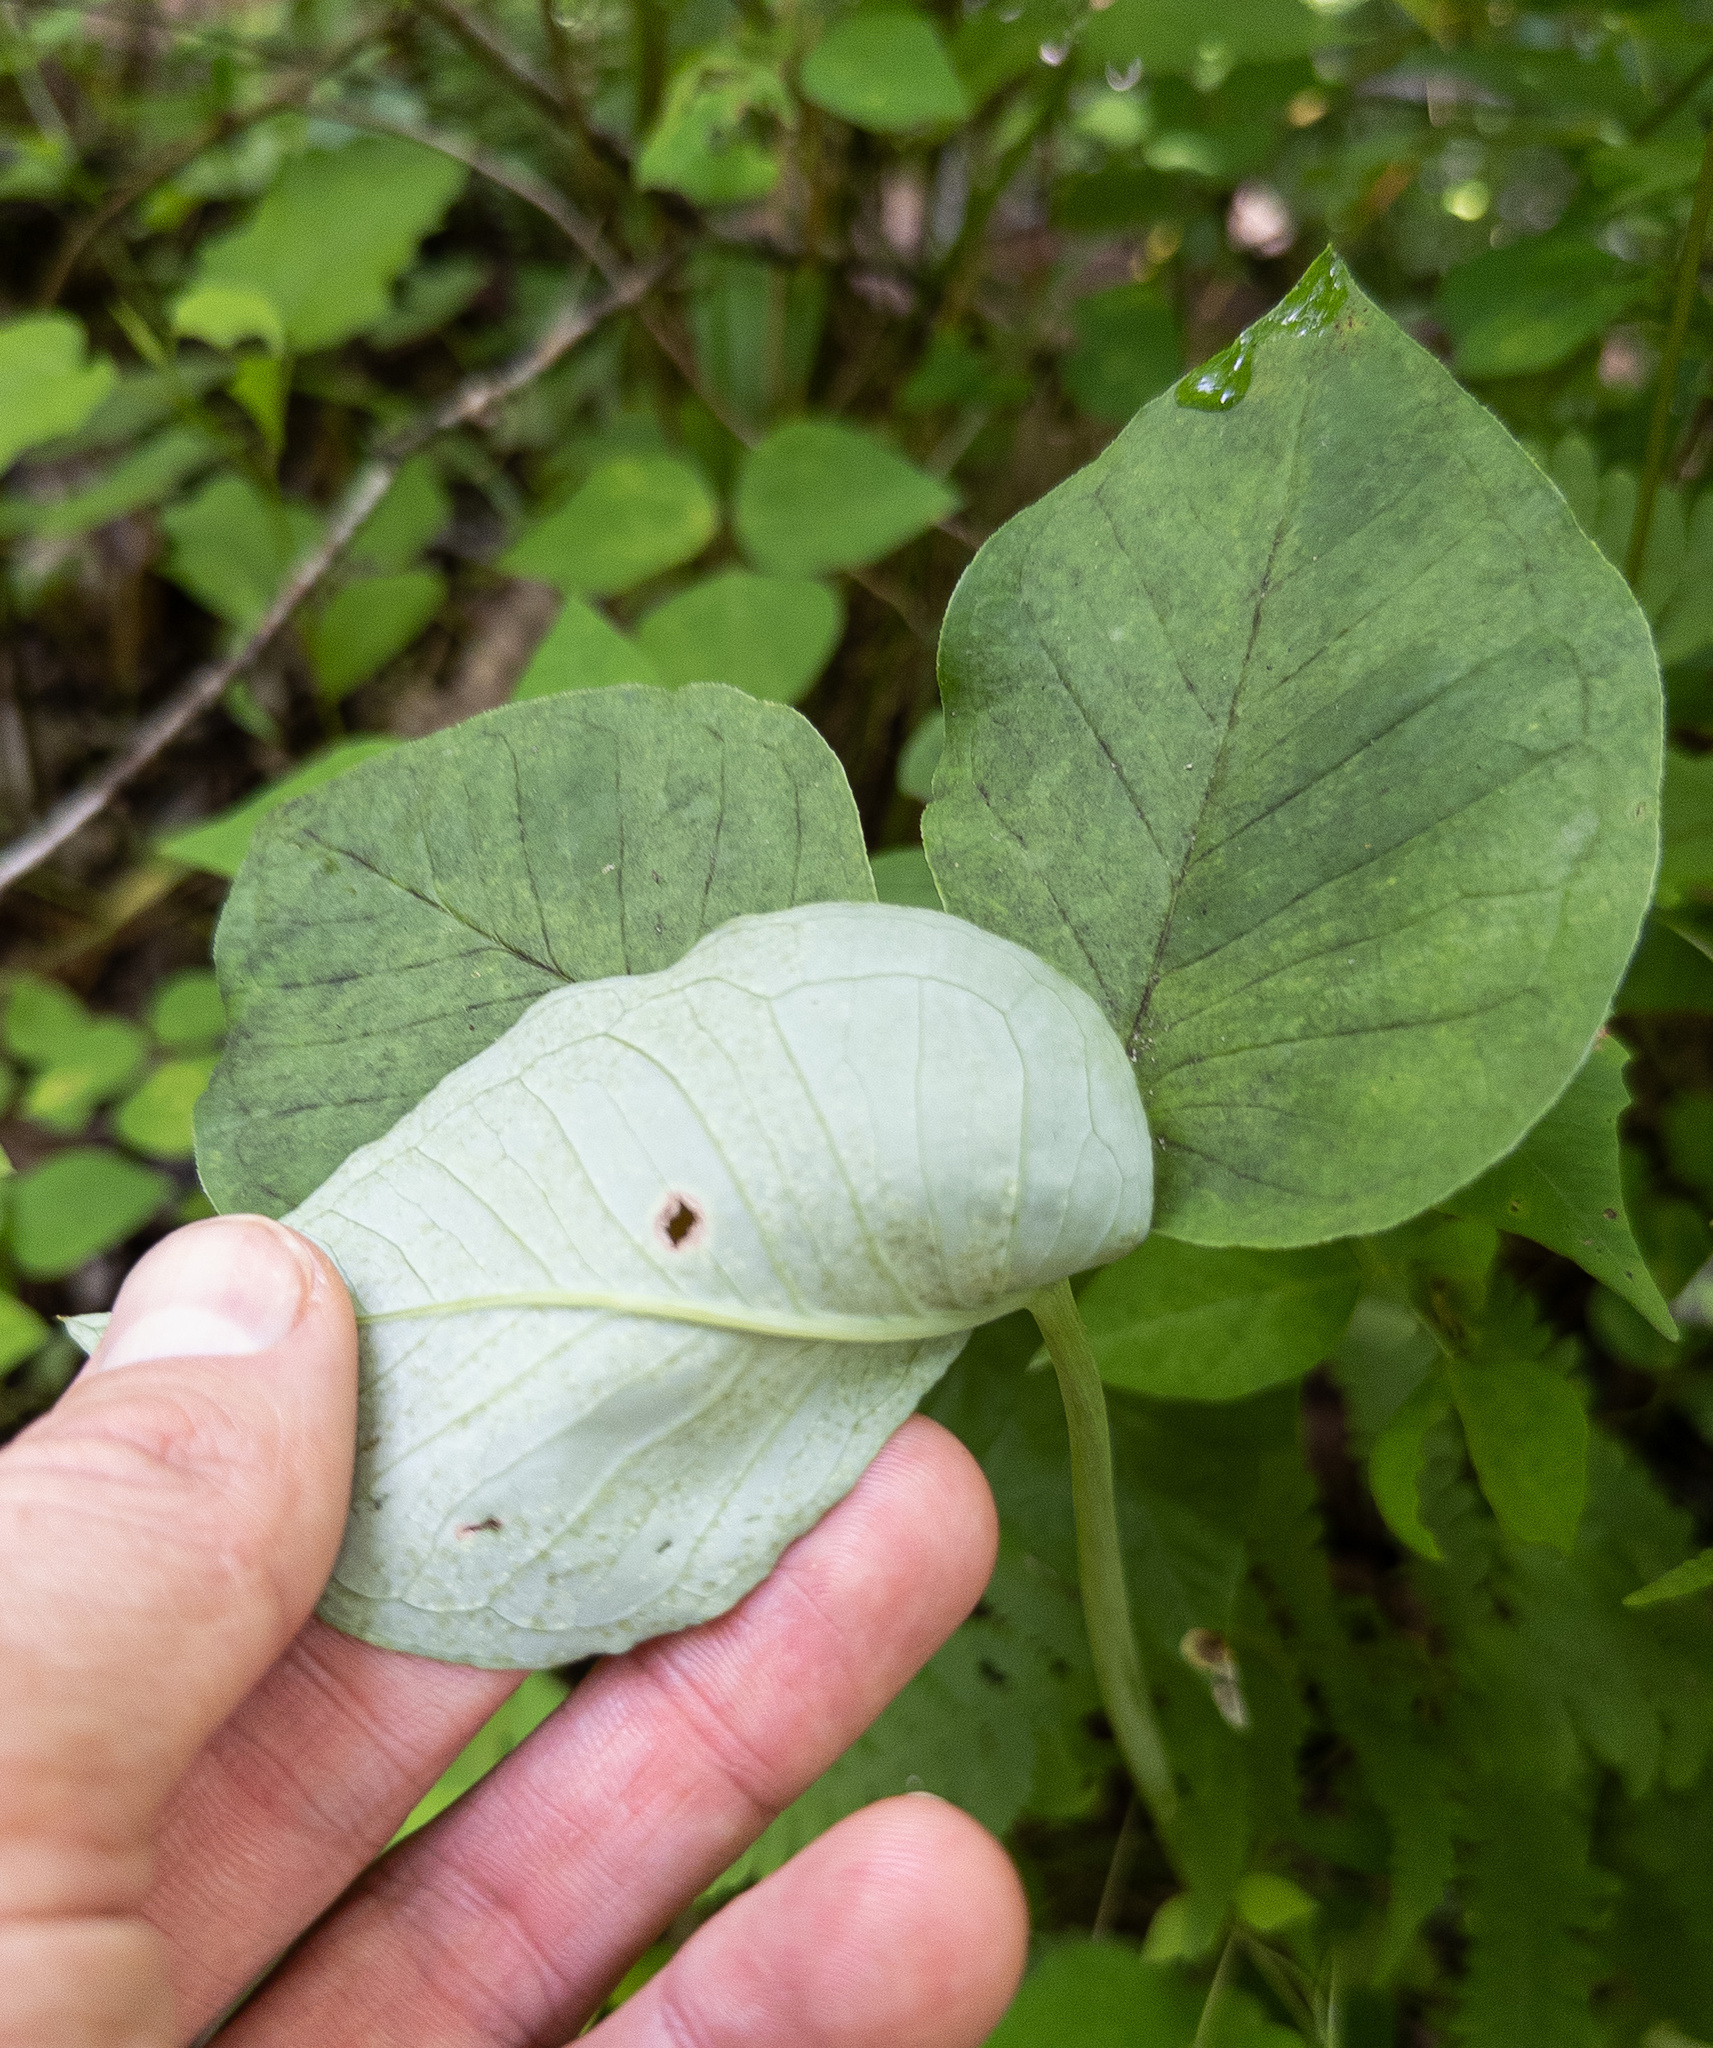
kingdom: Plantae
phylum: Tracheophyta
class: Liliopsida
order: Alismatales
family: Araceae
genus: Arisaema
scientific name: Arisaema triphyllum
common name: Jack-in-the-pulpit
